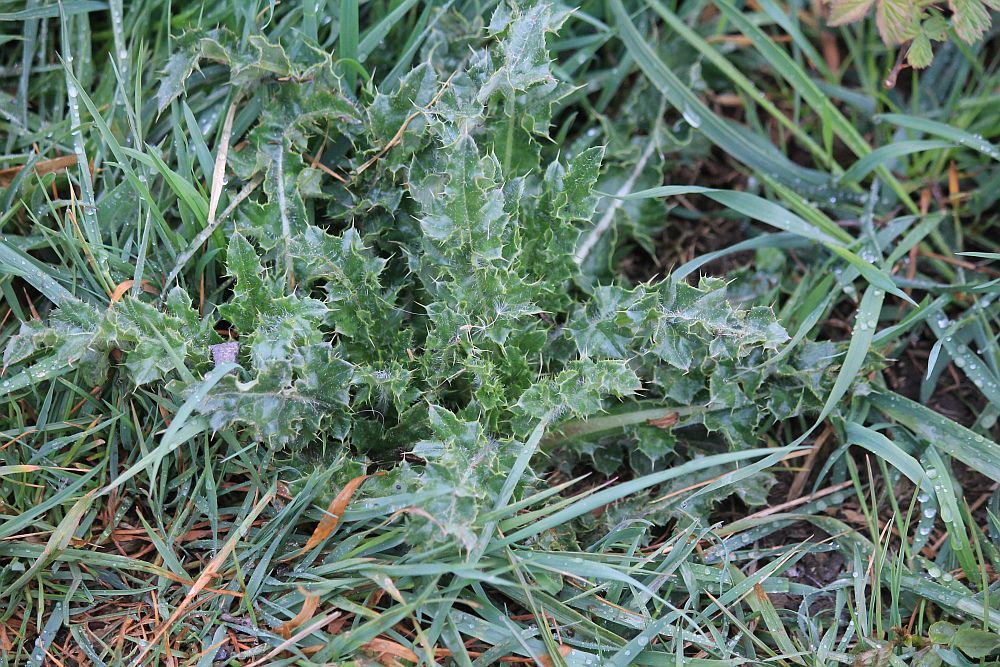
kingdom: Plantae
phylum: Tracheophyta
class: Magnoliopsida
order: Asterales
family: Asteraceae
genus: Cirsium
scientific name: Cirsium arvense
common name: Creeping thistle
